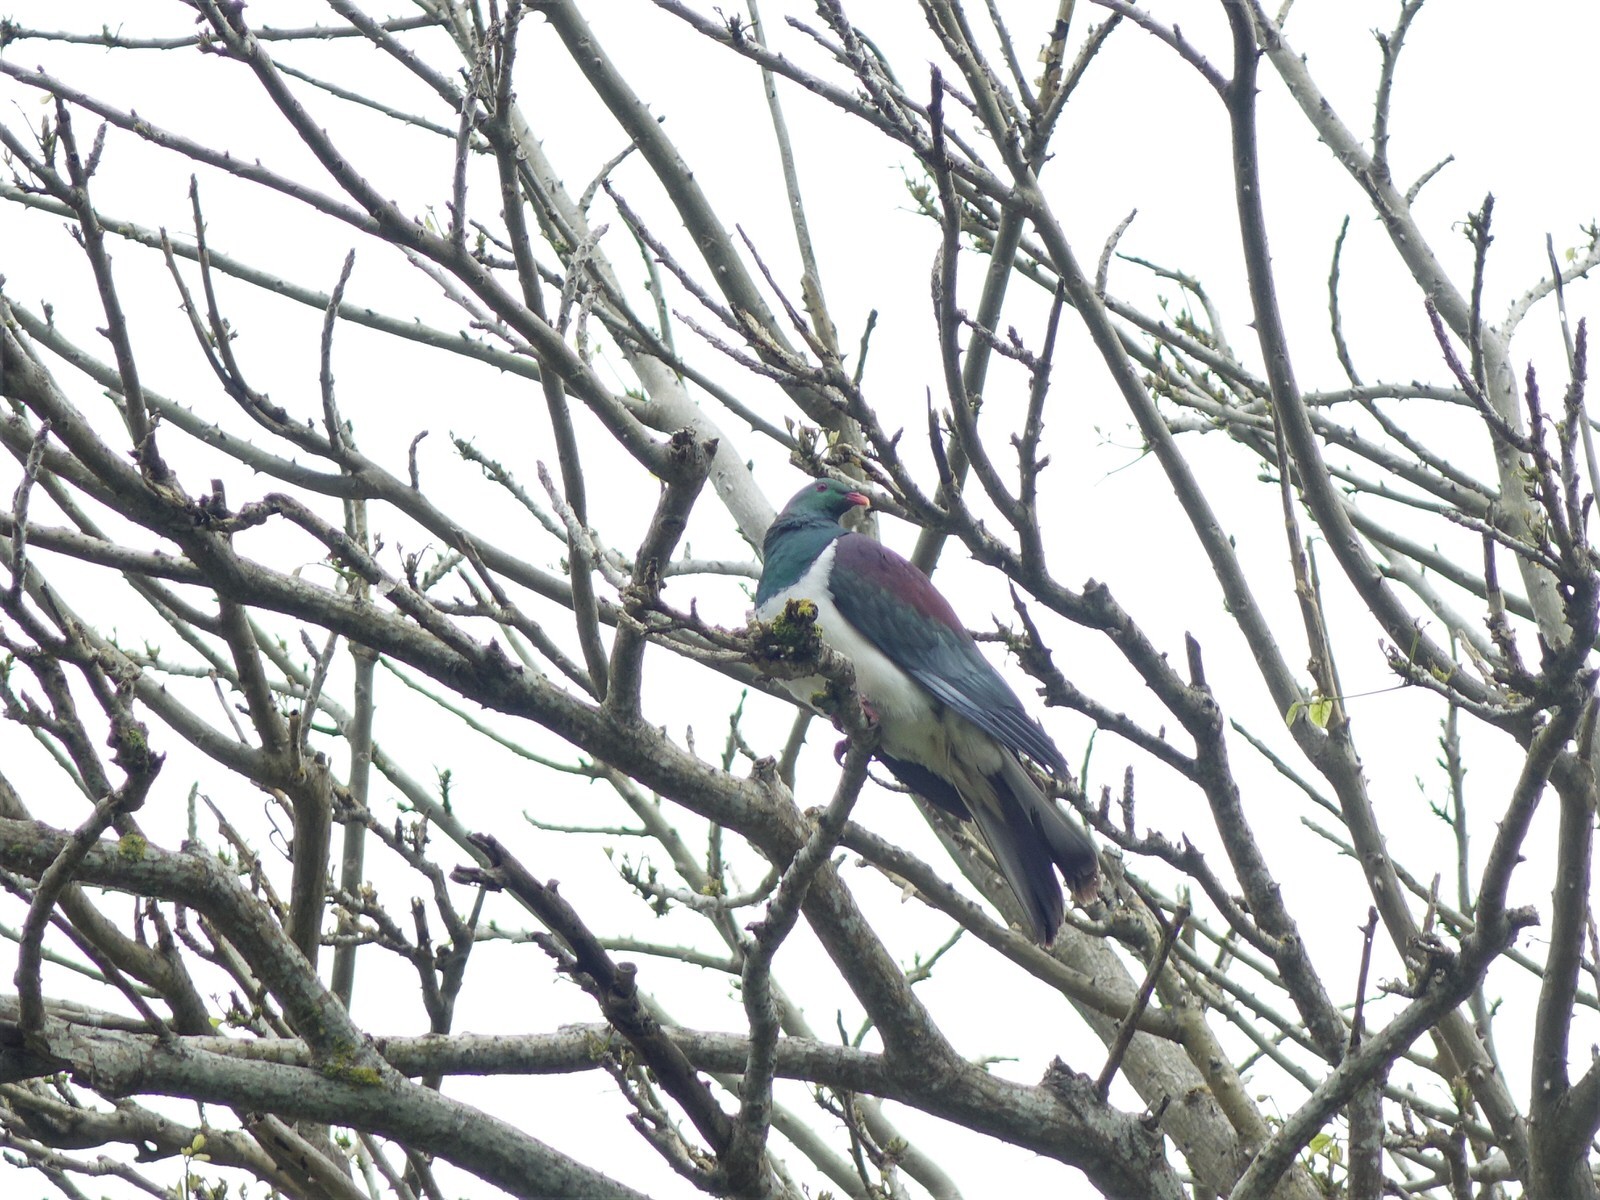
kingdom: Animalia
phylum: Chordata
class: Aves
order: Columbiformes
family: Columbidae
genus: Hemiphaga
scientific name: Hemiphaga novaeseelandiae
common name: New zealand pigeon
